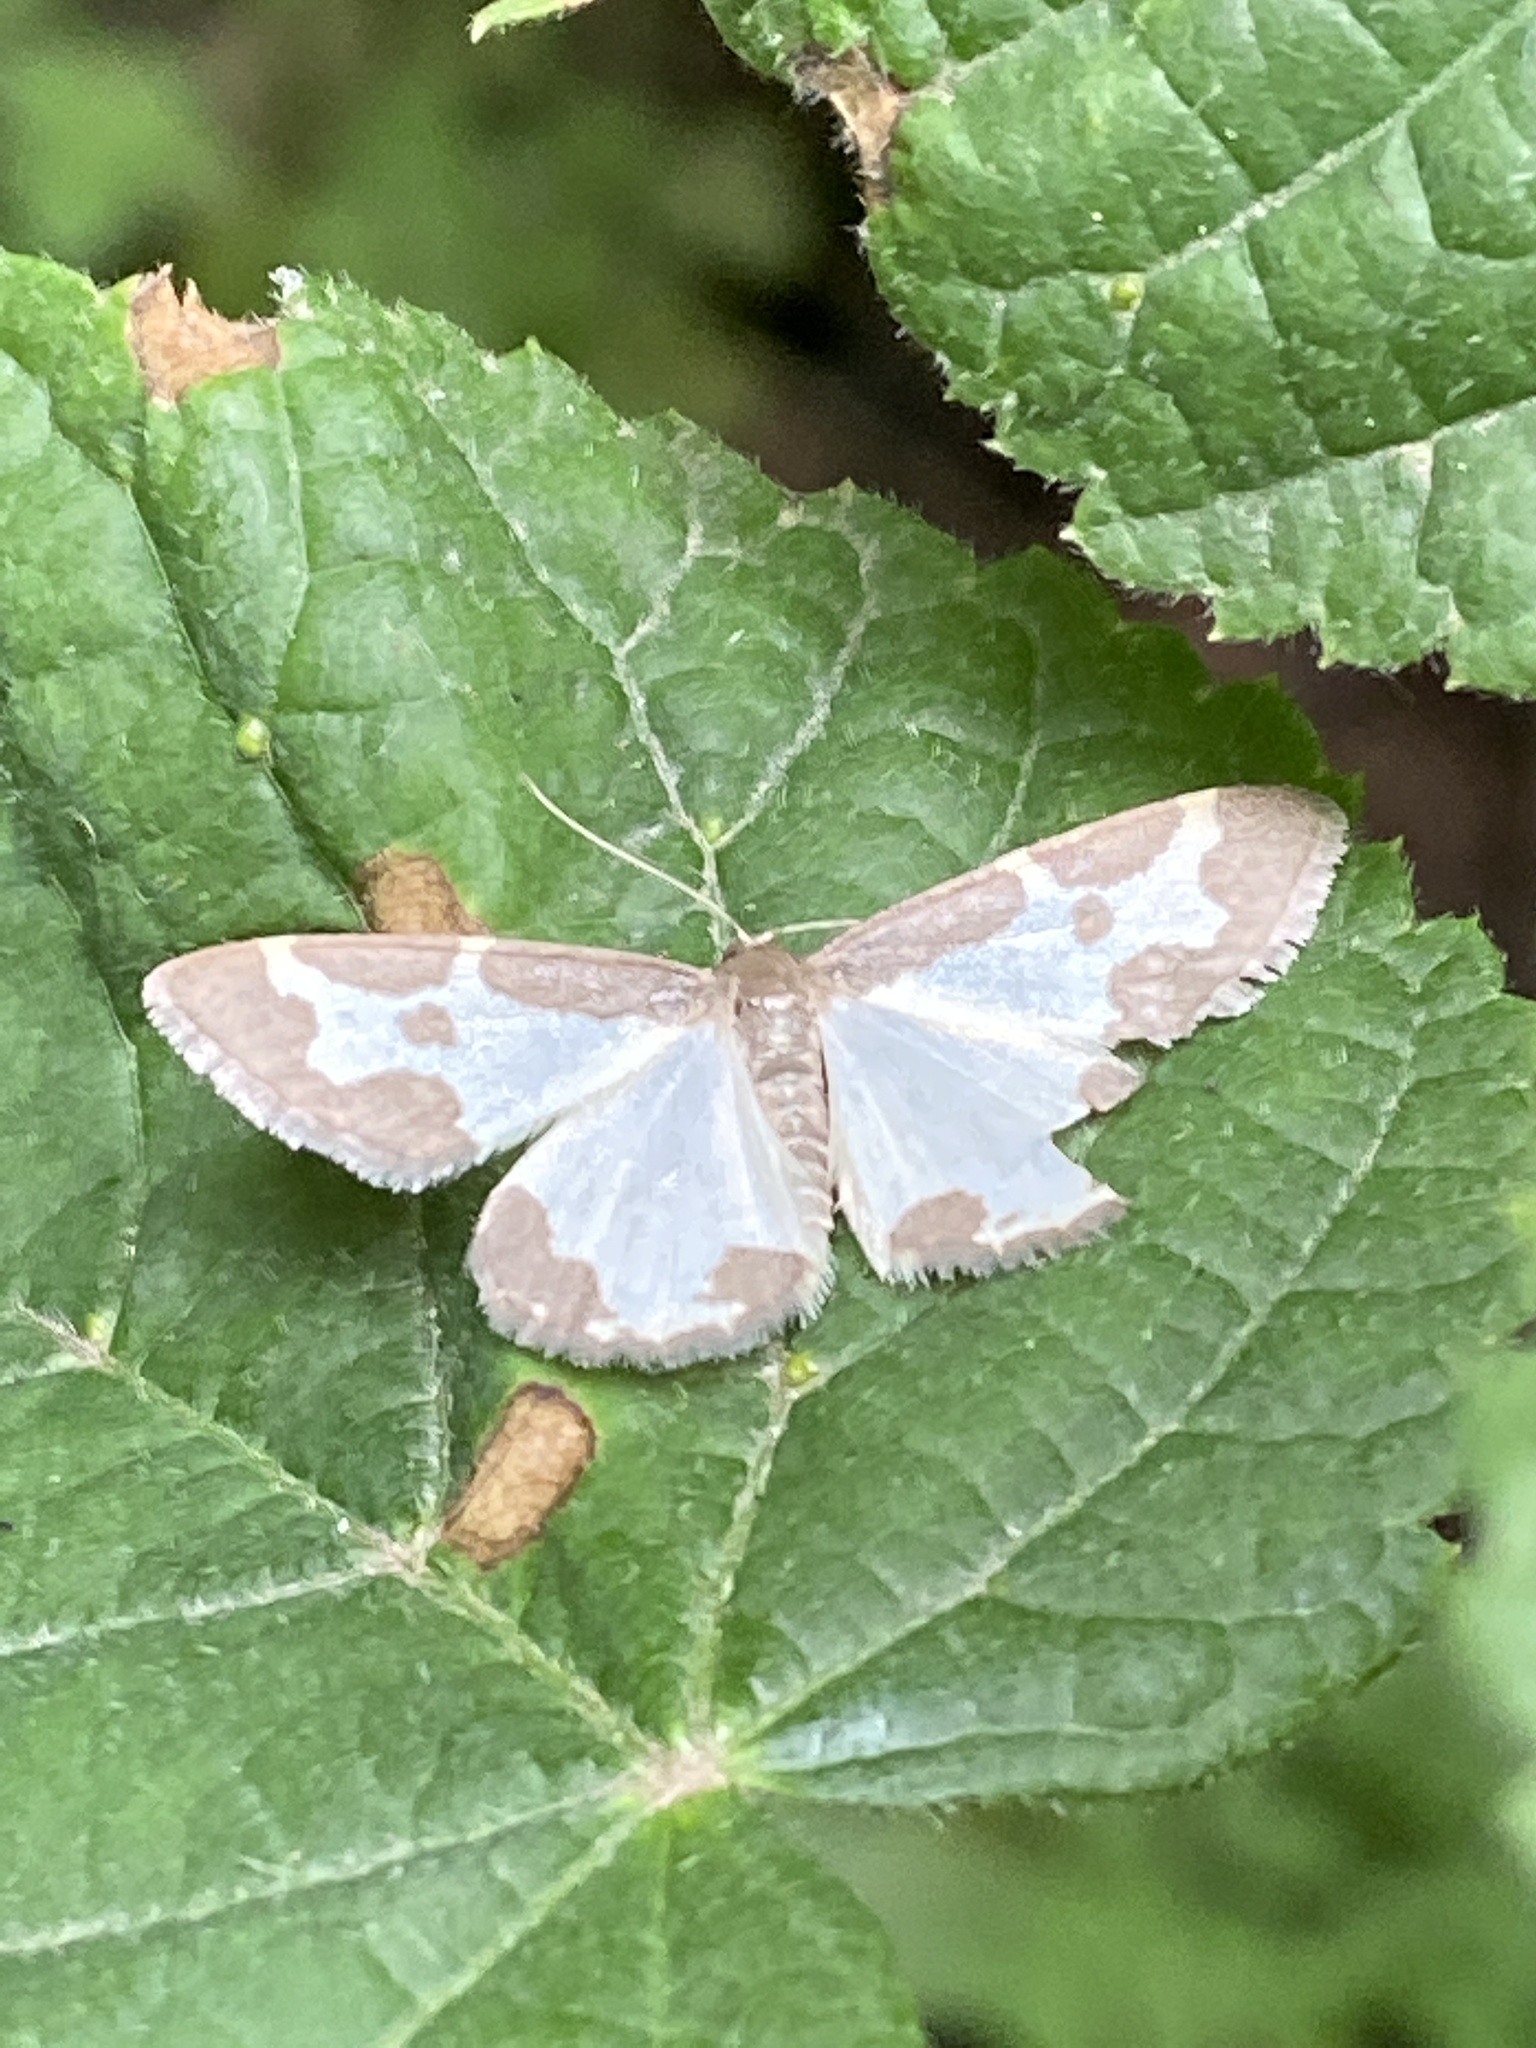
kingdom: Animalia
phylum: Arthropoda
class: Insecta
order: Lepidoptera
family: Geometridae
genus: Lomaspilis
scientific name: Lomaspilis marginata
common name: Clouded border
